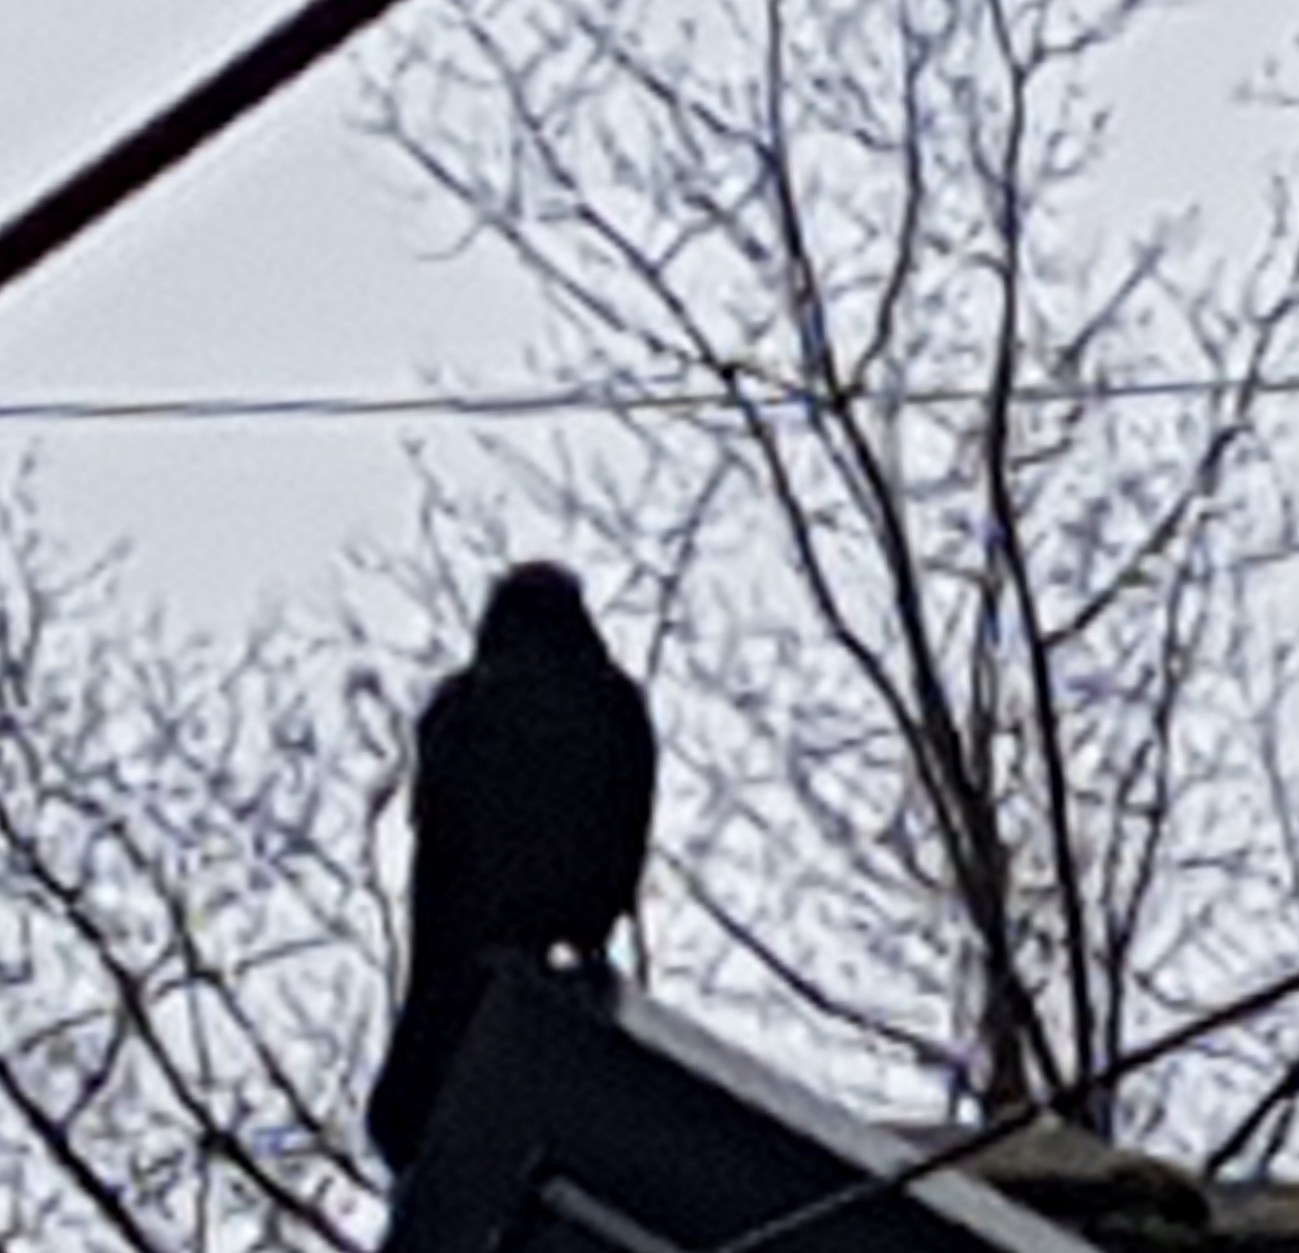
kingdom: Animalia
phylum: Chordata
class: Aves
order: Passeriformes
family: Corvidae
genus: Corvus
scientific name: Corvus brachyrhynchos
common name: American crow
